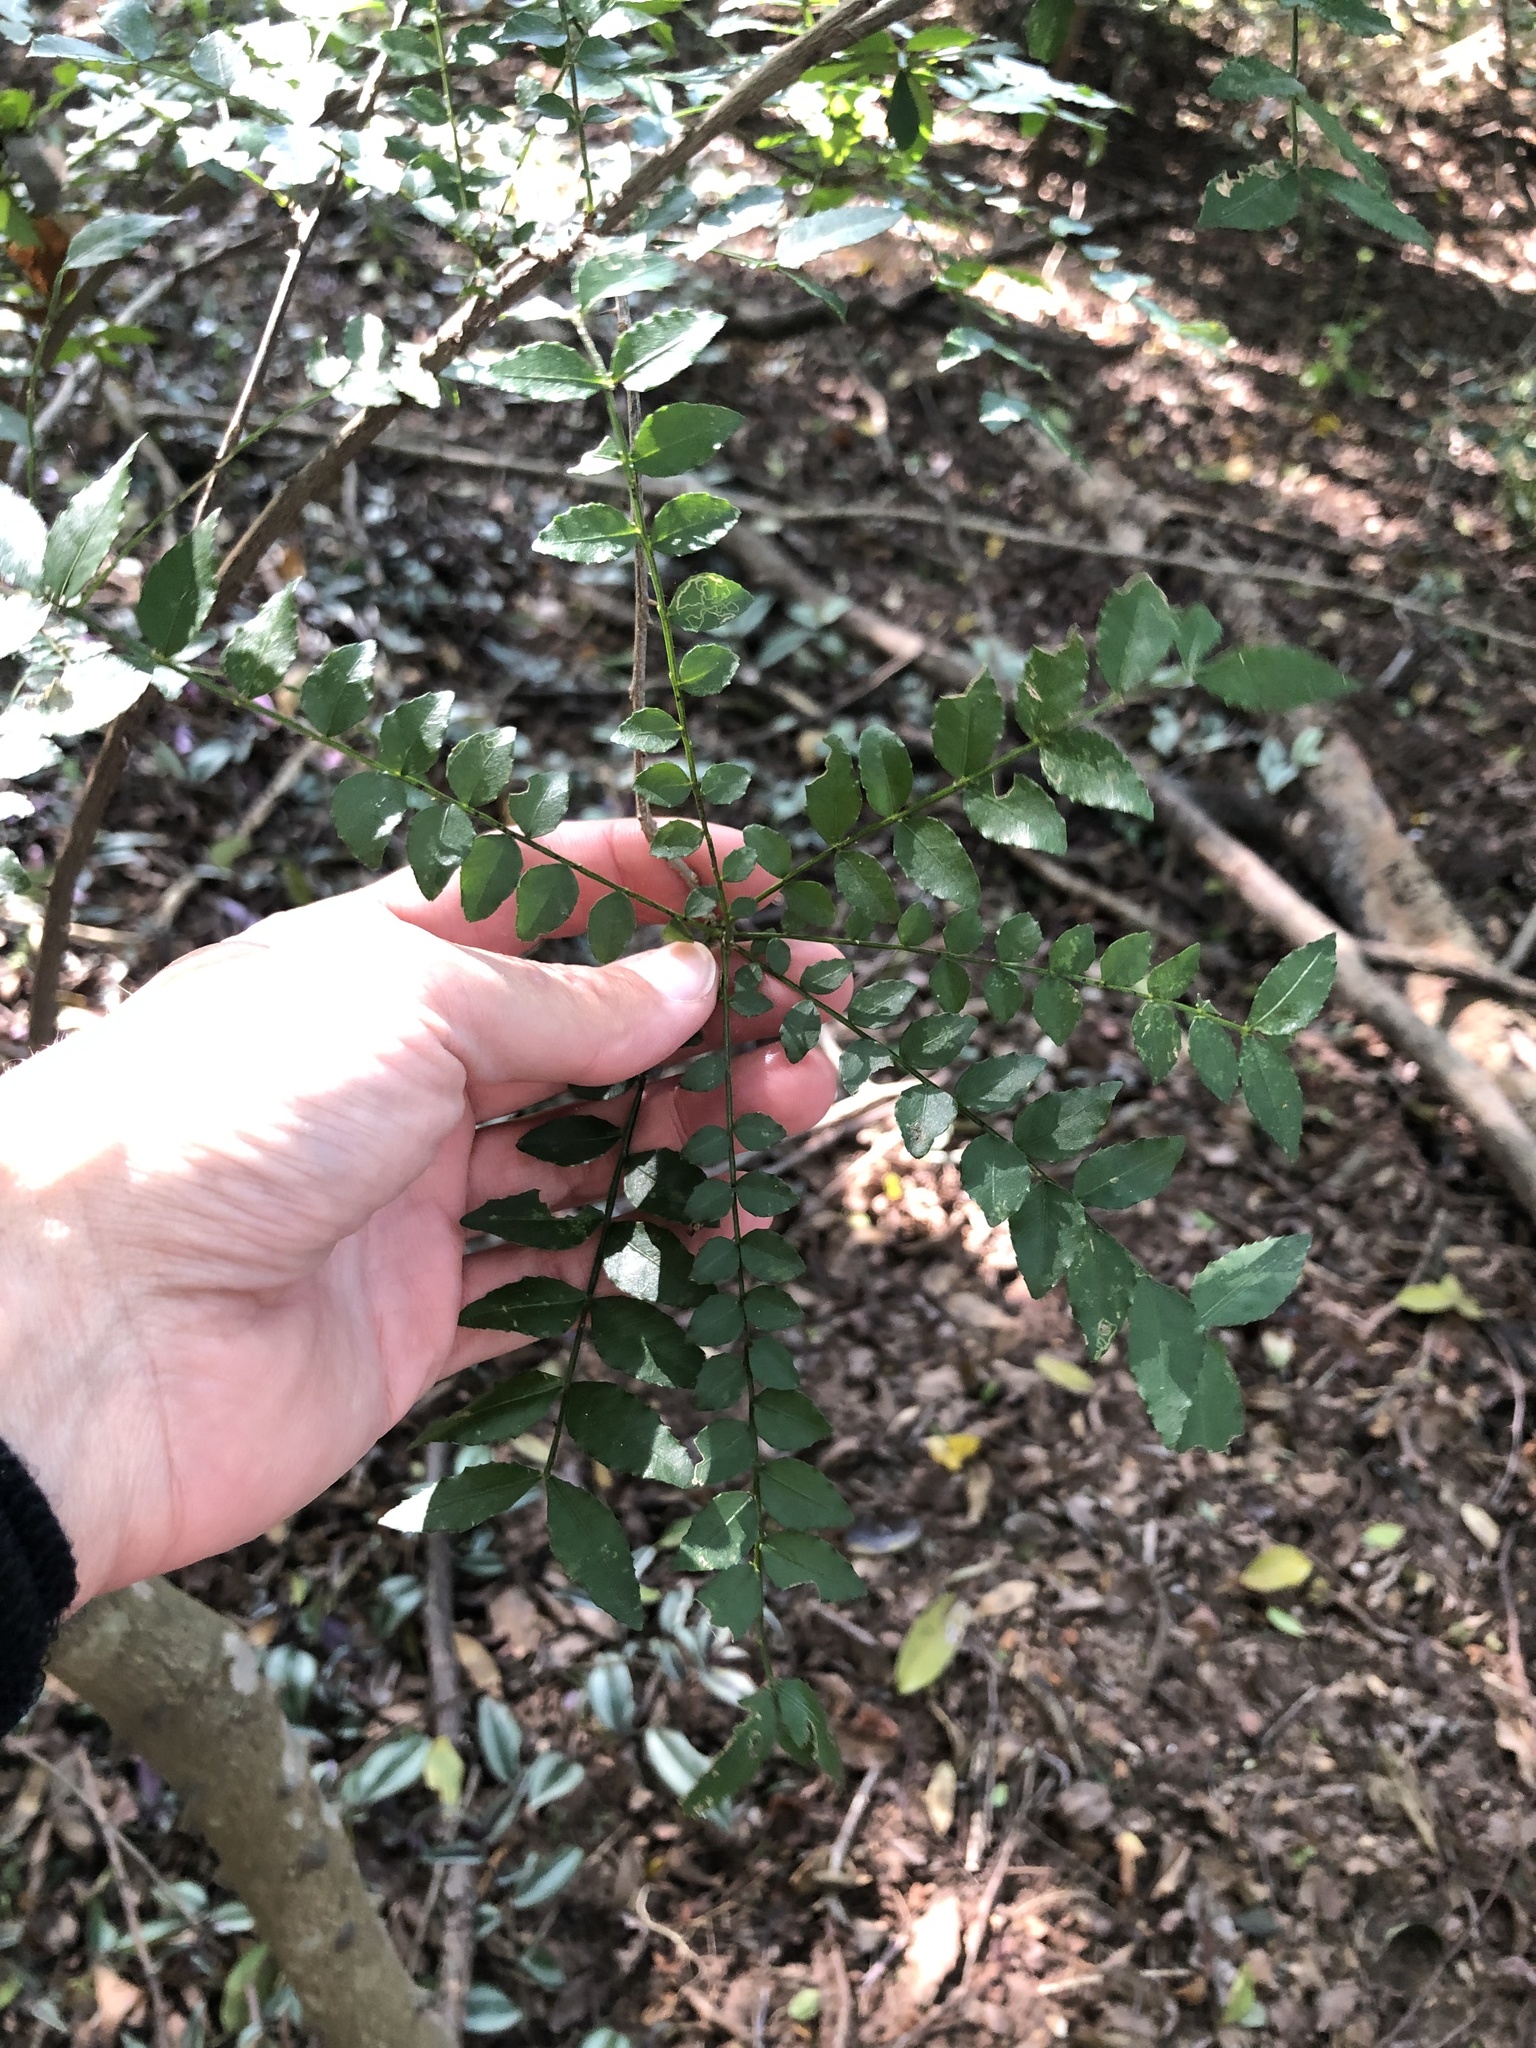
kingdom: Plantae
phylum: Tracheophyta
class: Magnoliopsida
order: Sapindales
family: Rutaceae
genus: Zanthoxylum
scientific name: Zanthoxylum davyi
